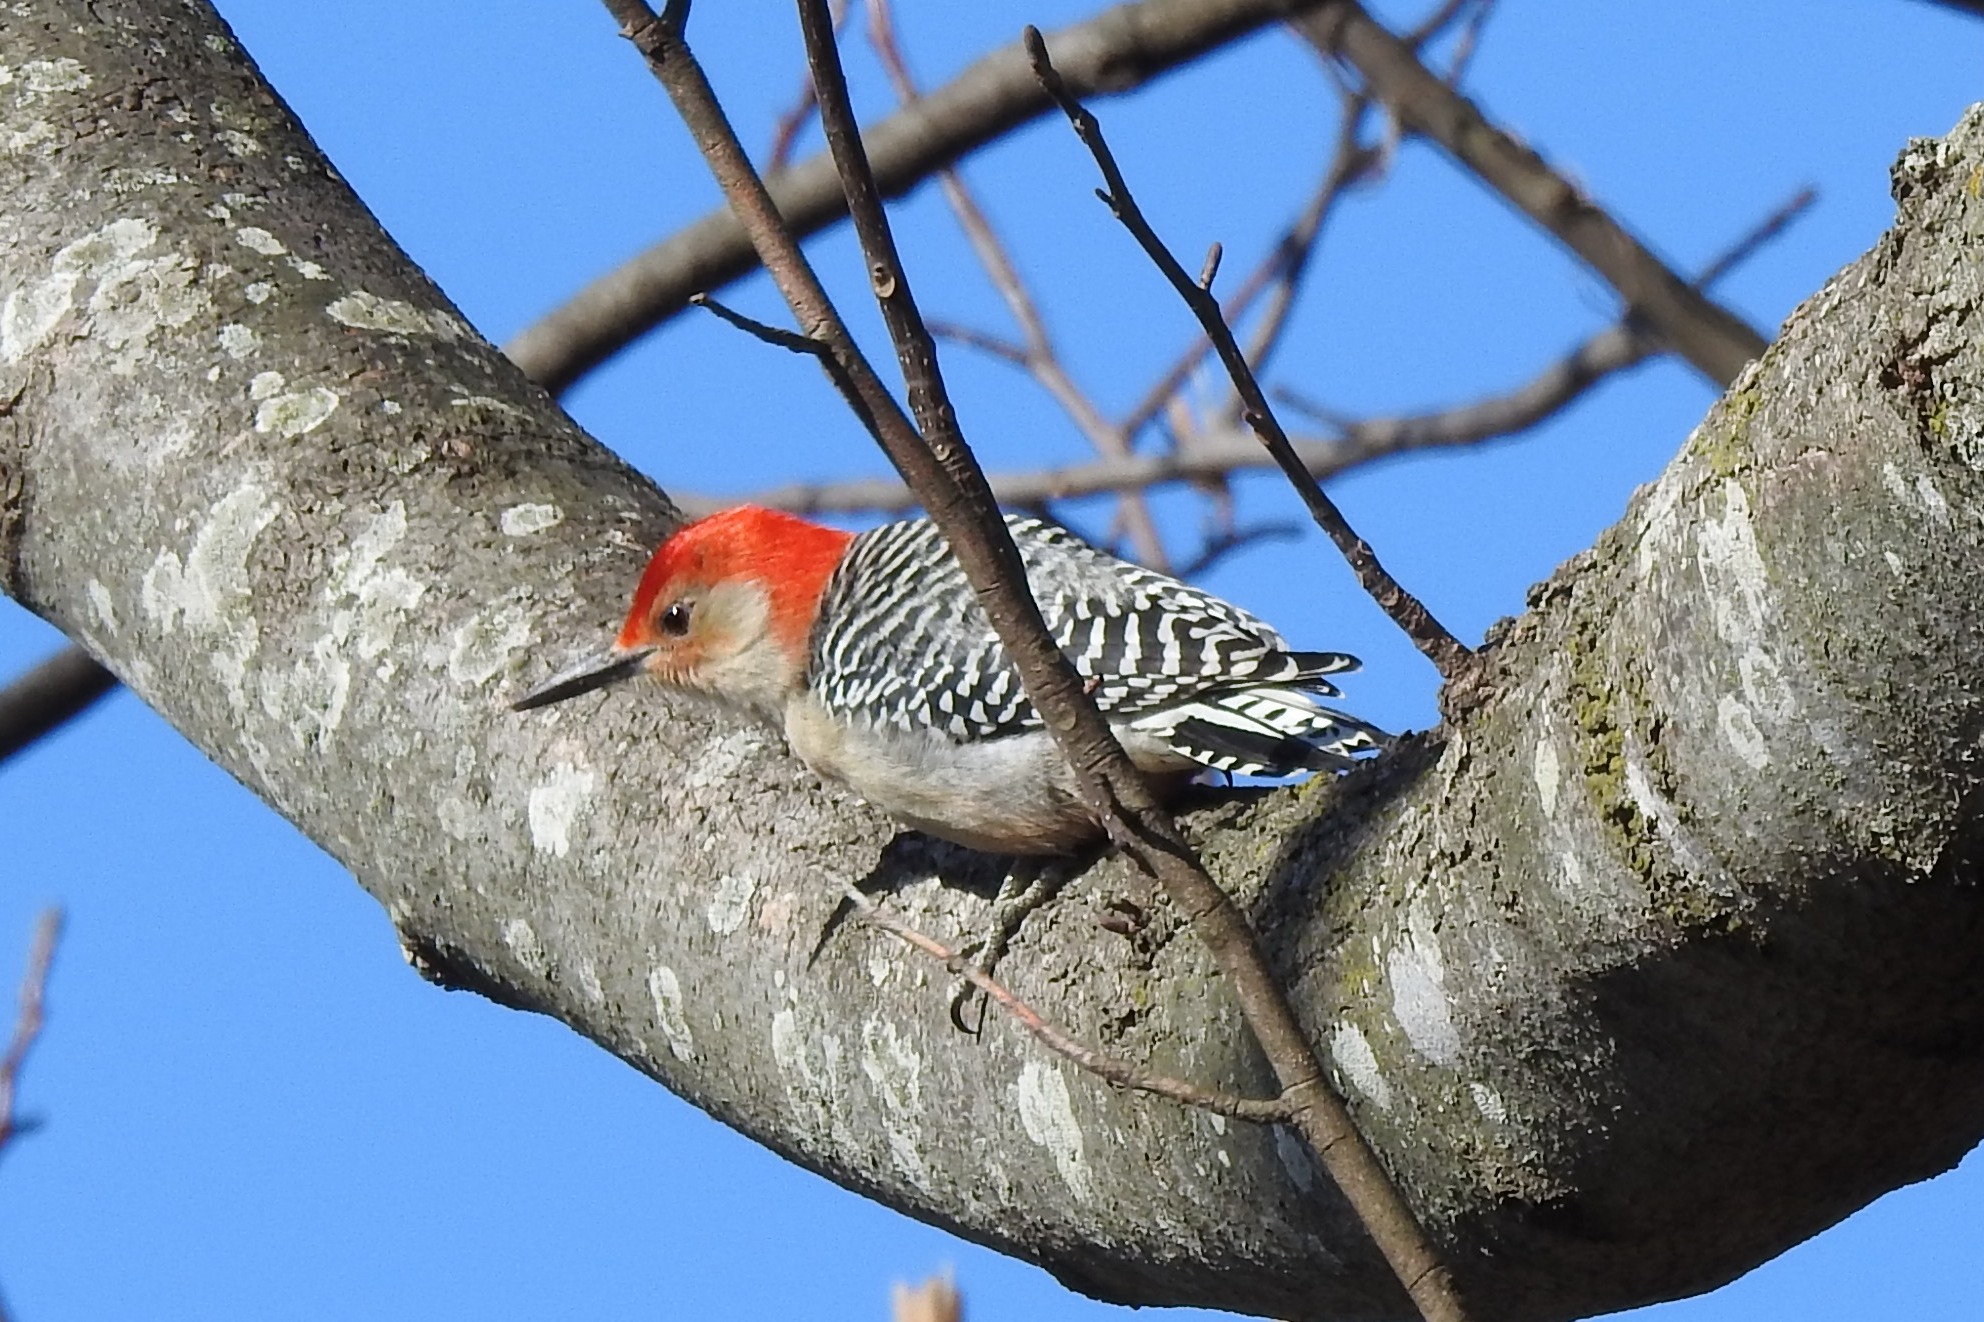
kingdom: Animalia
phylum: Chordata
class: Aves
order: Piciformes
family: Picidae
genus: Melanerpes
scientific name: Melanerpes carolinus
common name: Red-bellied woodpecker
